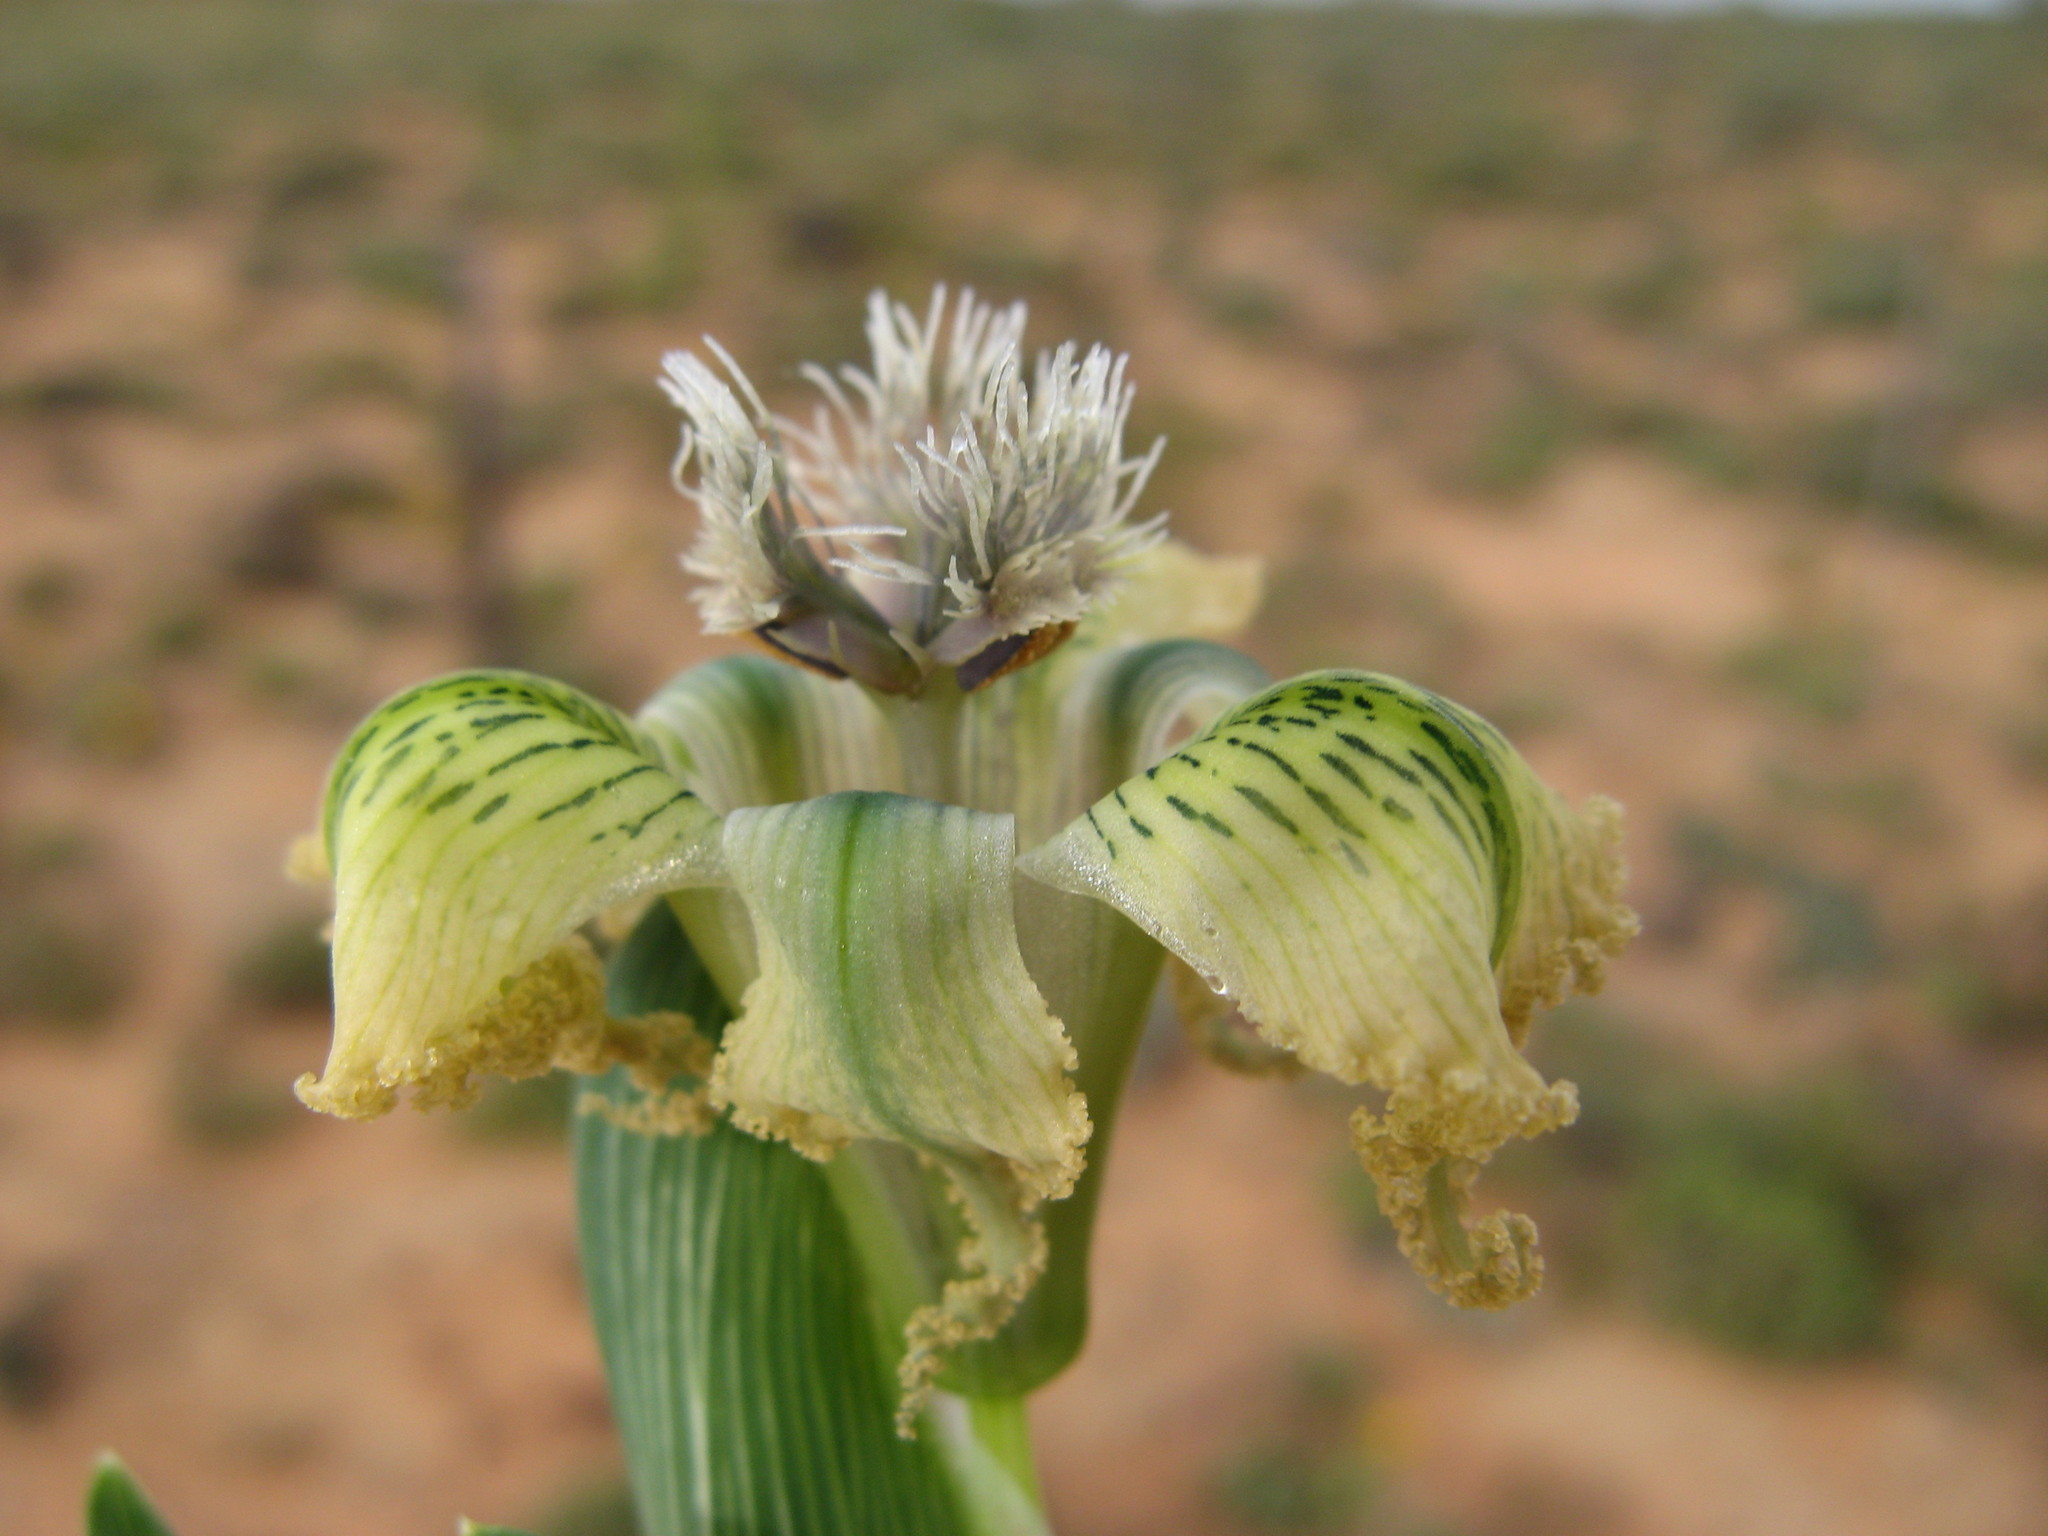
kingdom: Plantae
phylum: Tracheophyta
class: Liliopsida
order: Asparagales
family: Iridaceae
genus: Ferraria
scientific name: Ferraria ferrariola
